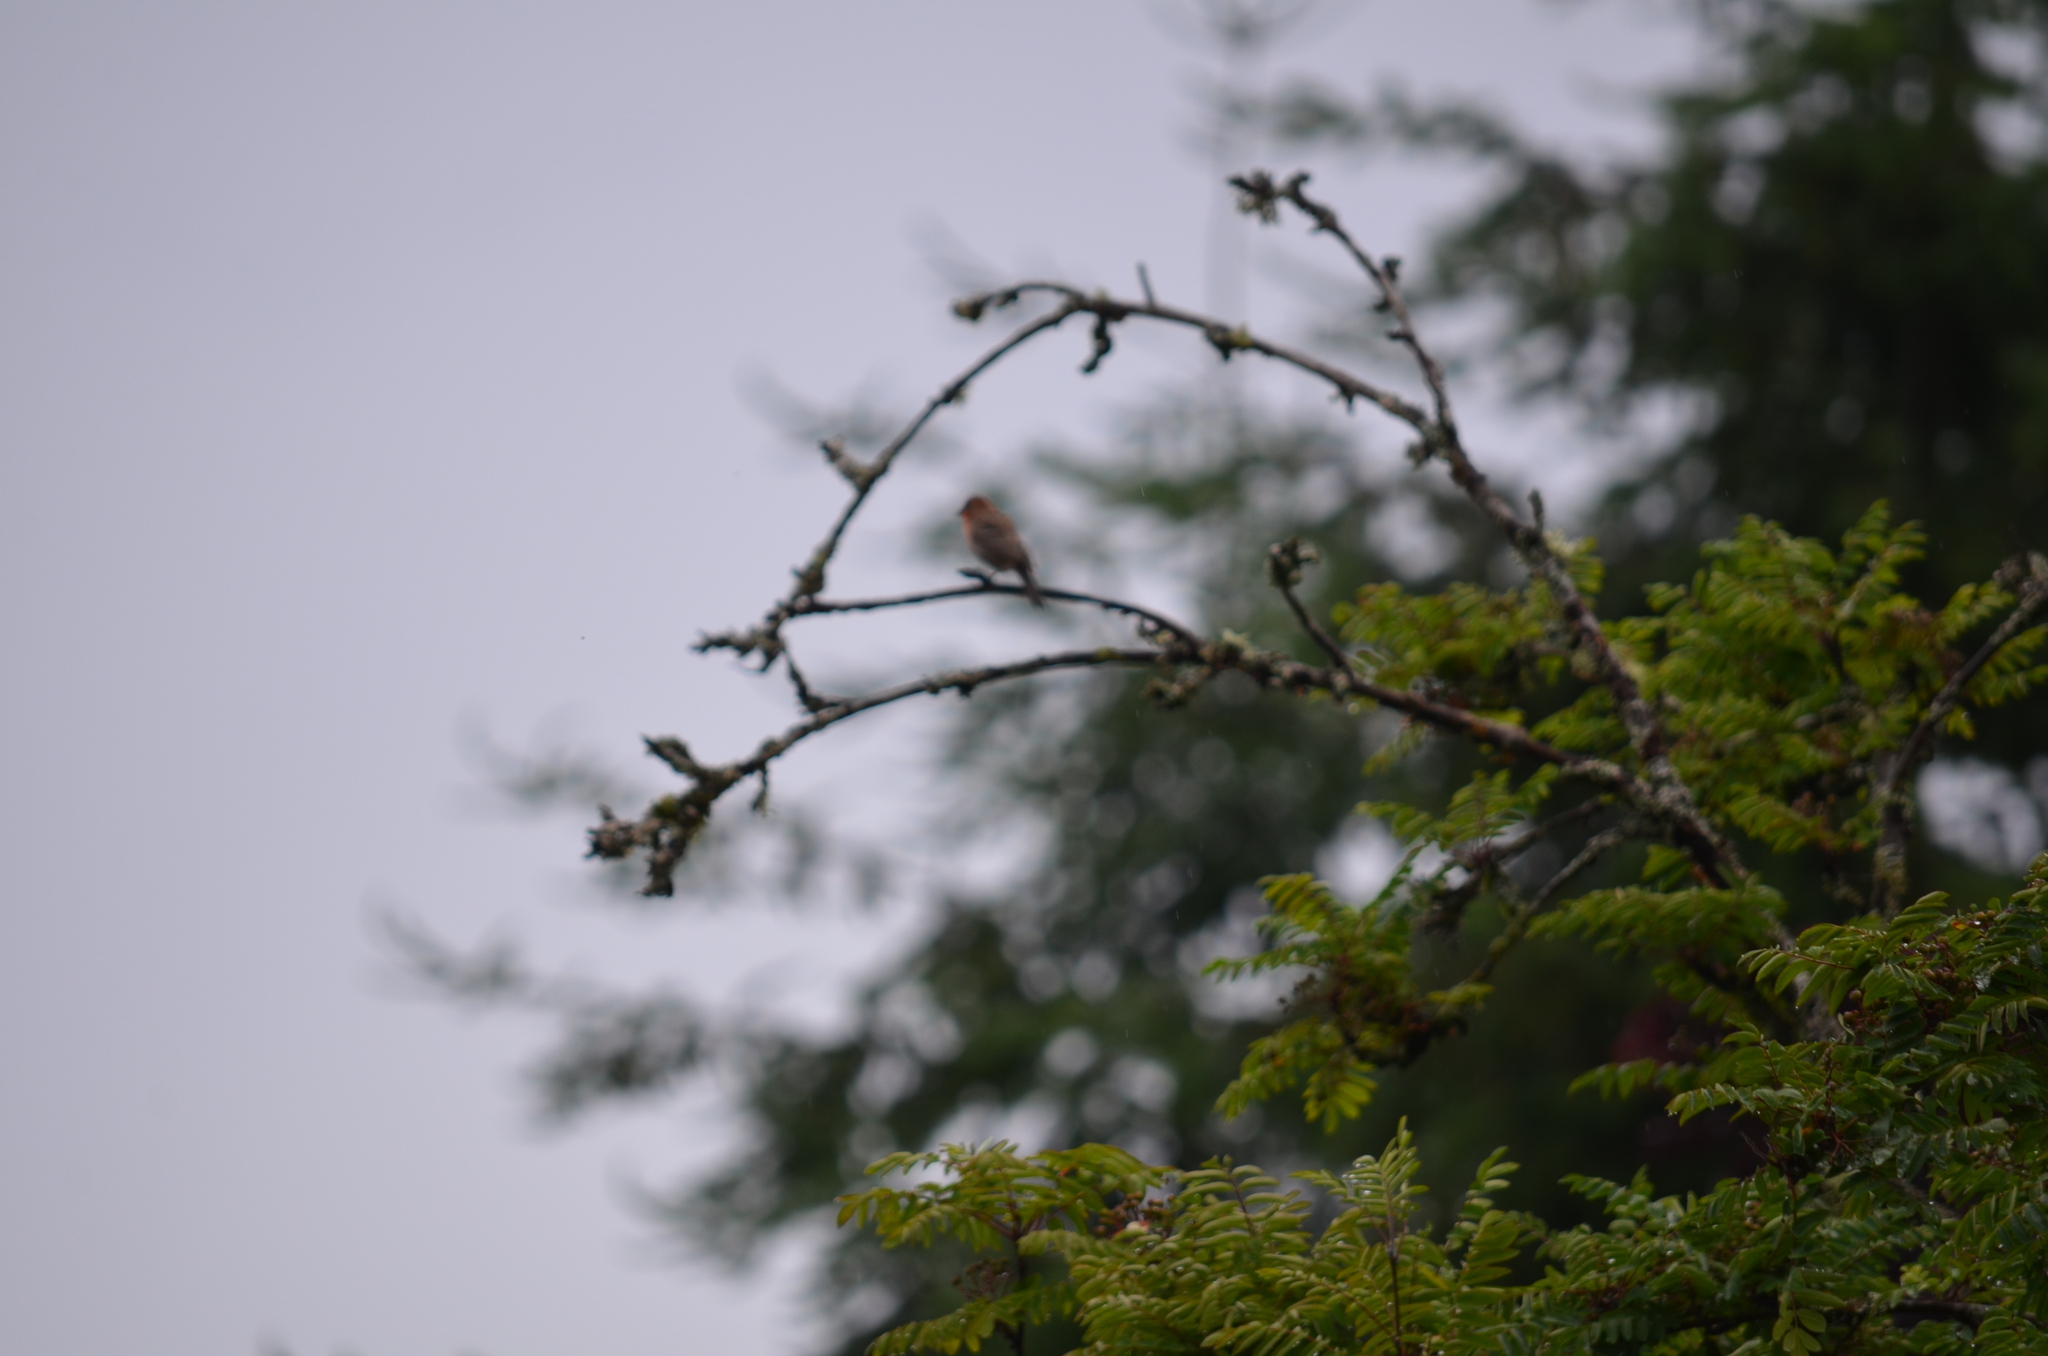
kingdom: Animalia
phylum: Chordata
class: Aves
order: Passeriformes
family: Fringillidae
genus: Haemorhous
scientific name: Haemorhous mexicanus
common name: House finch
